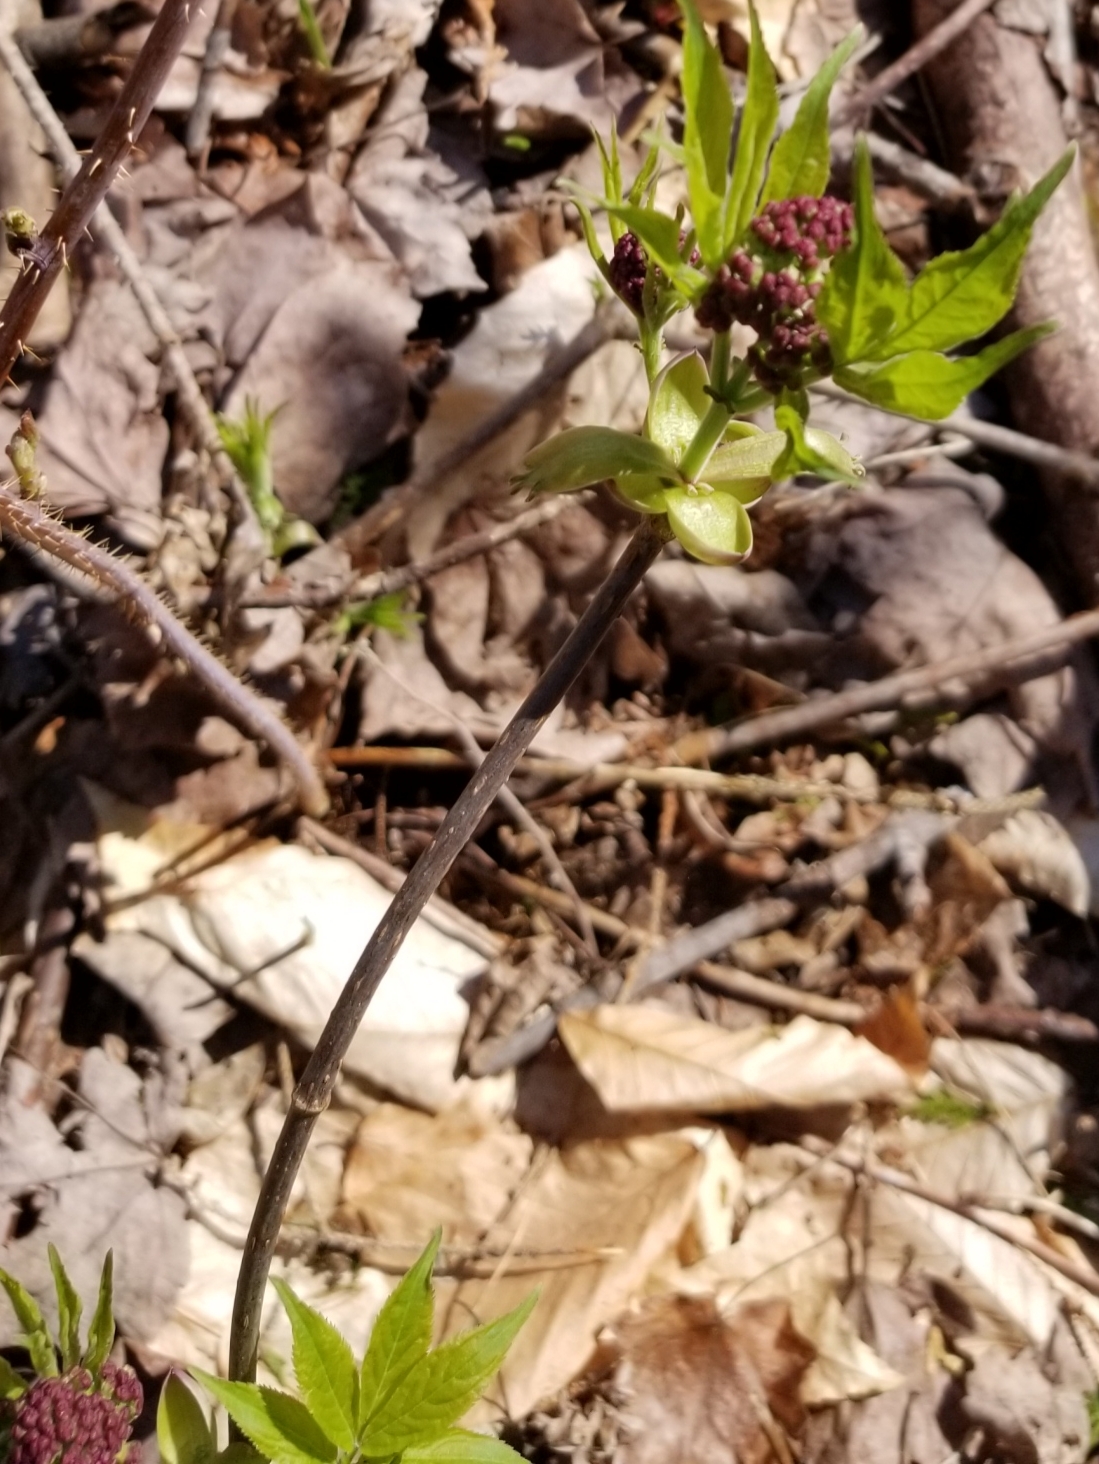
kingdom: Plantae
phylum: Tracheophyta
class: Magnoliopsida
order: Dipsacales
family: Viburnaceae
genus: Sambucus
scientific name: Sambucus racemosa
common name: Red-berried elder
